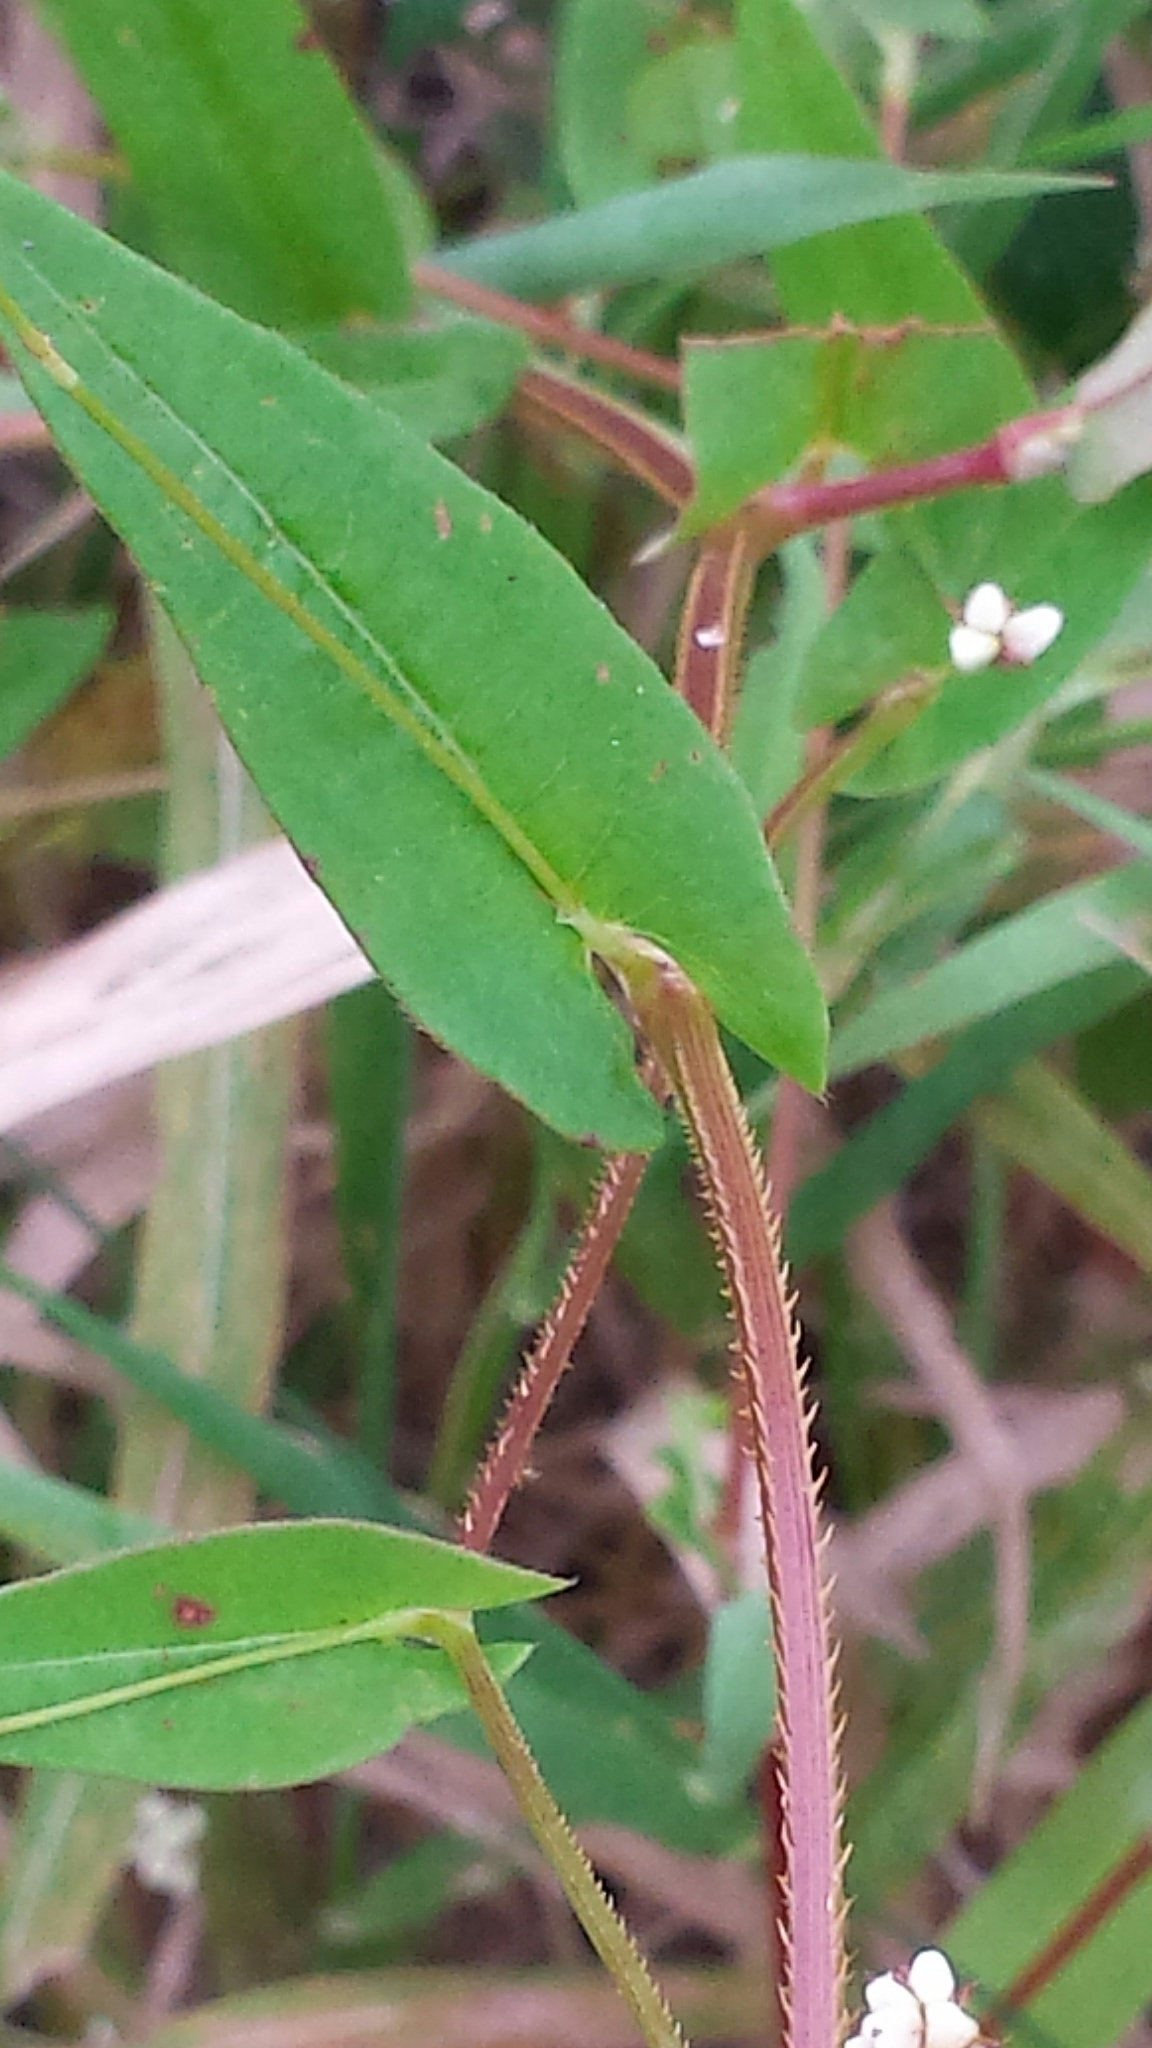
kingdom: Plantae
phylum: Tracheophyta
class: Magnoliopsida
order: Caryophyllales
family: Polygonaceae
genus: Persicaria
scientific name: Persicaria sagittata
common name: American tearthumb
